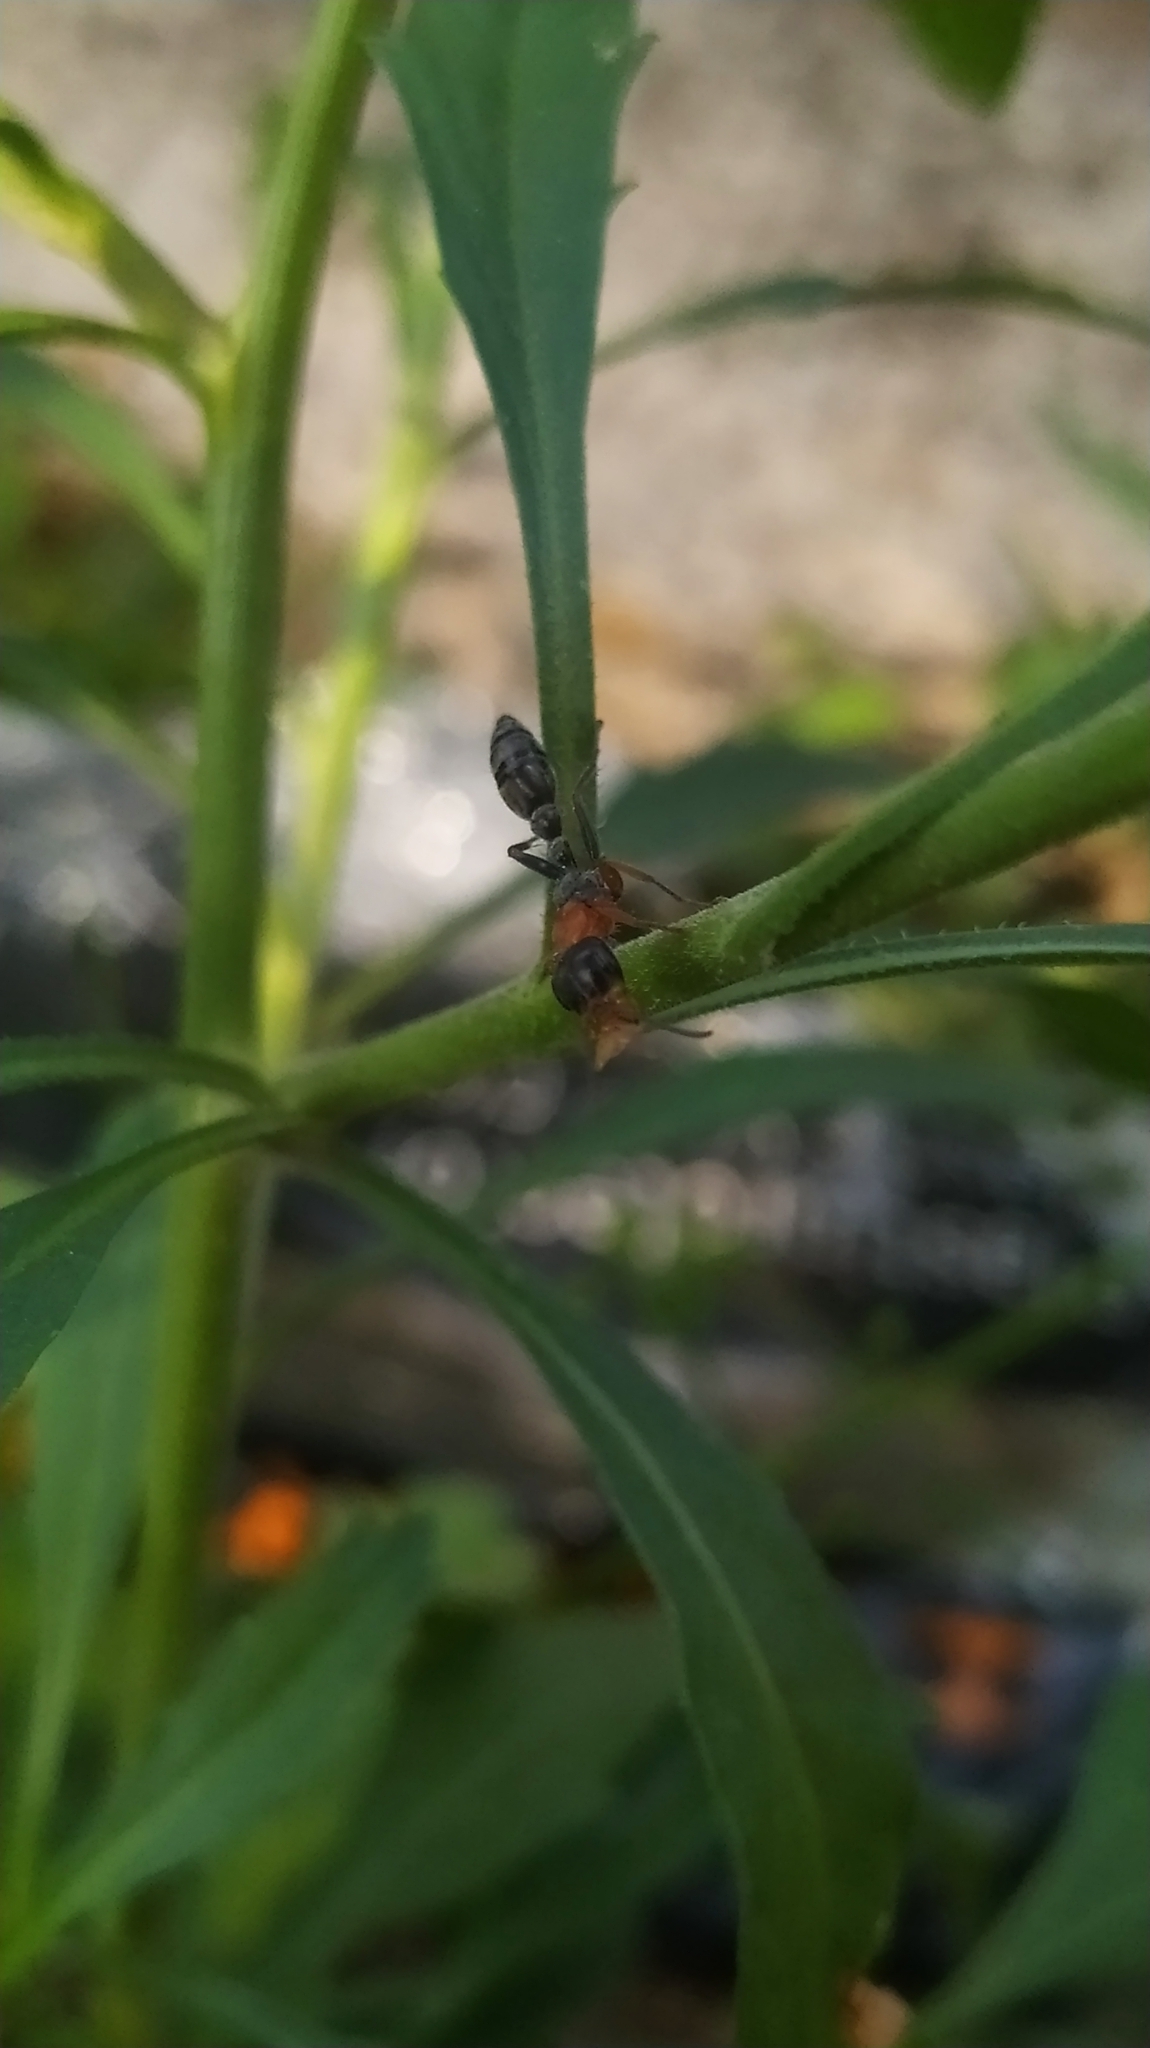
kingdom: Animalia
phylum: Arthropoda
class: Insecta
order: Hymenoptera
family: Formicidae
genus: Pseudomyrmex
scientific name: Pseudomyrmex gracilis
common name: Graceful twig ant
